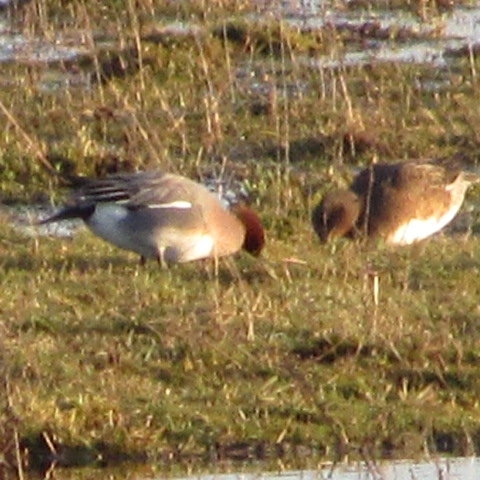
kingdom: Animalia
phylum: Chordata
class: Aves
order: Anseriformes
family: Anatidae
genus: Mareca
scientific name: Mareca penelope
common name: Eurasian wigeon
